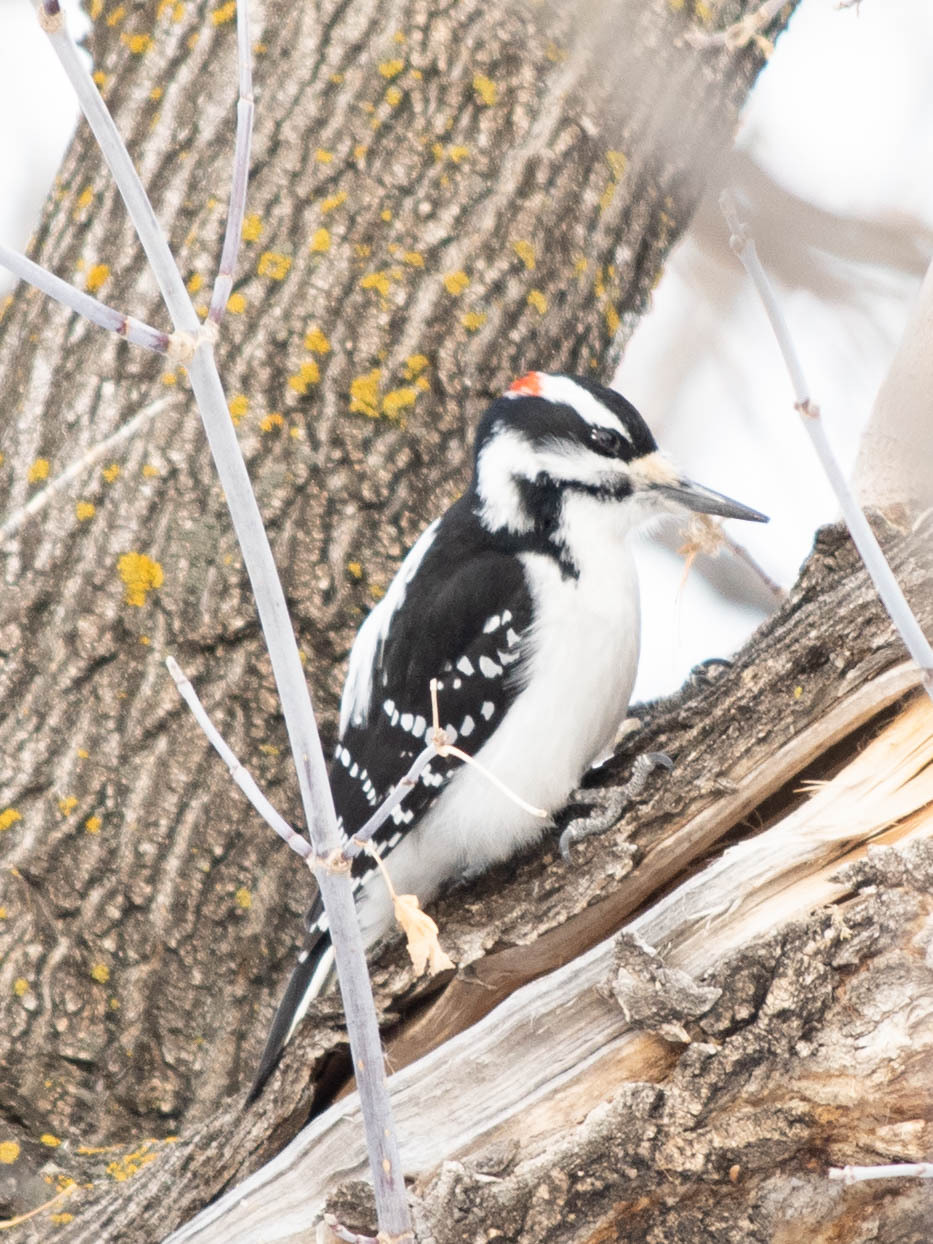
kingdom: Animalia
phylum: Chordata
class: Aves
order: Piciformes
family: Picidae
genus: Leuconotopicus
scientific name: Leuconotopicus villosus
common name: Hairy woodpecker
